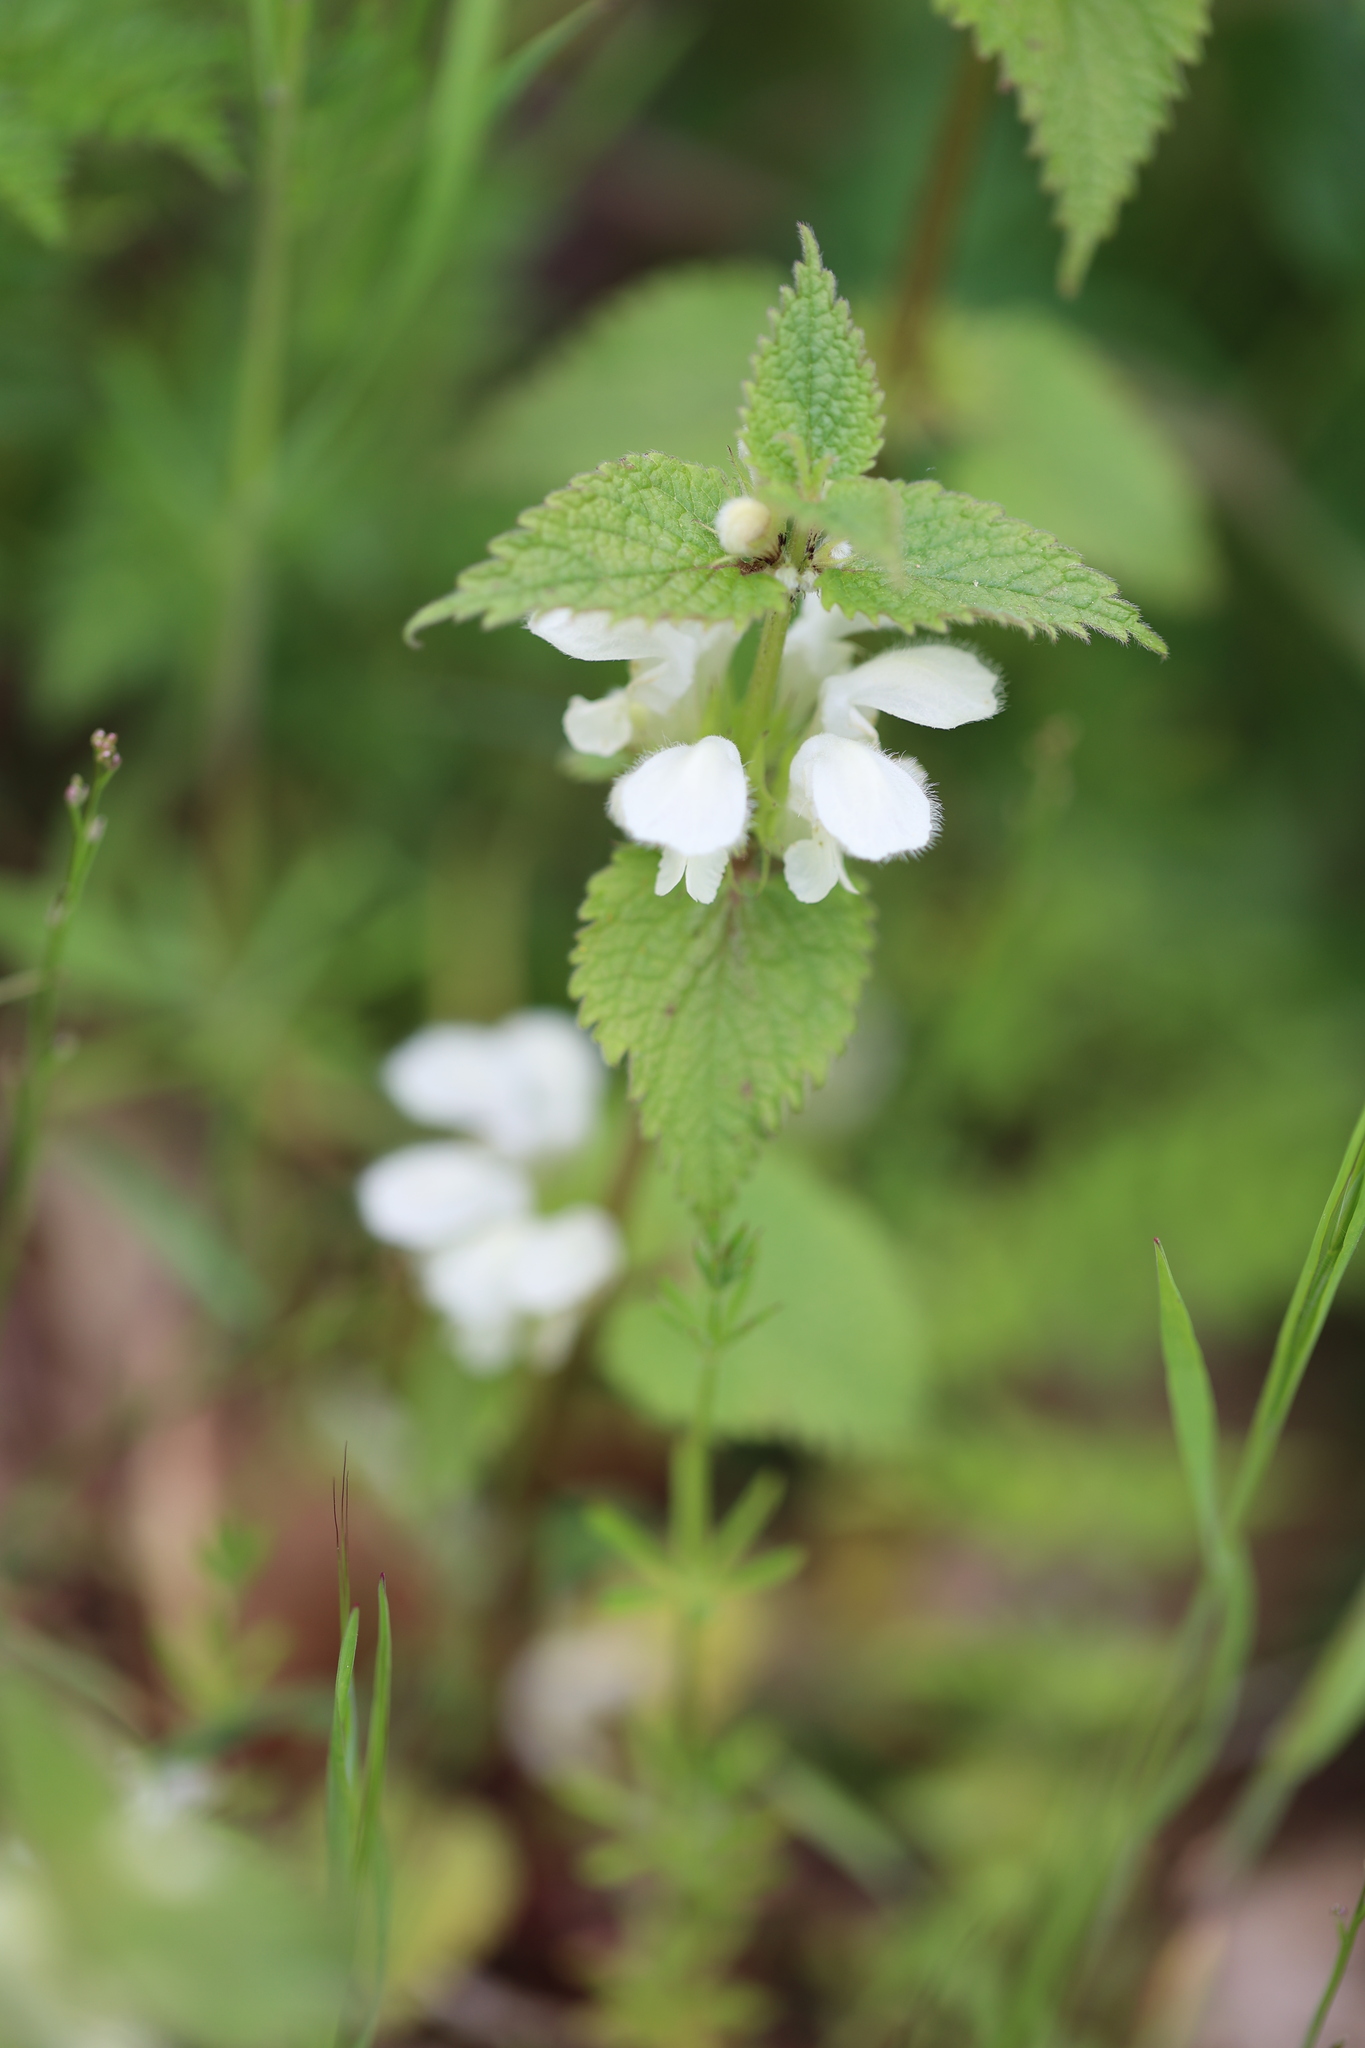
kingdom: Plantae
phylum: Tracheophyta
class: Magnoliopsida
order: Lamiales
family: Lamiaceae
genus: Lamium
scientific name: Lamium album
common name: White dead-nettle
